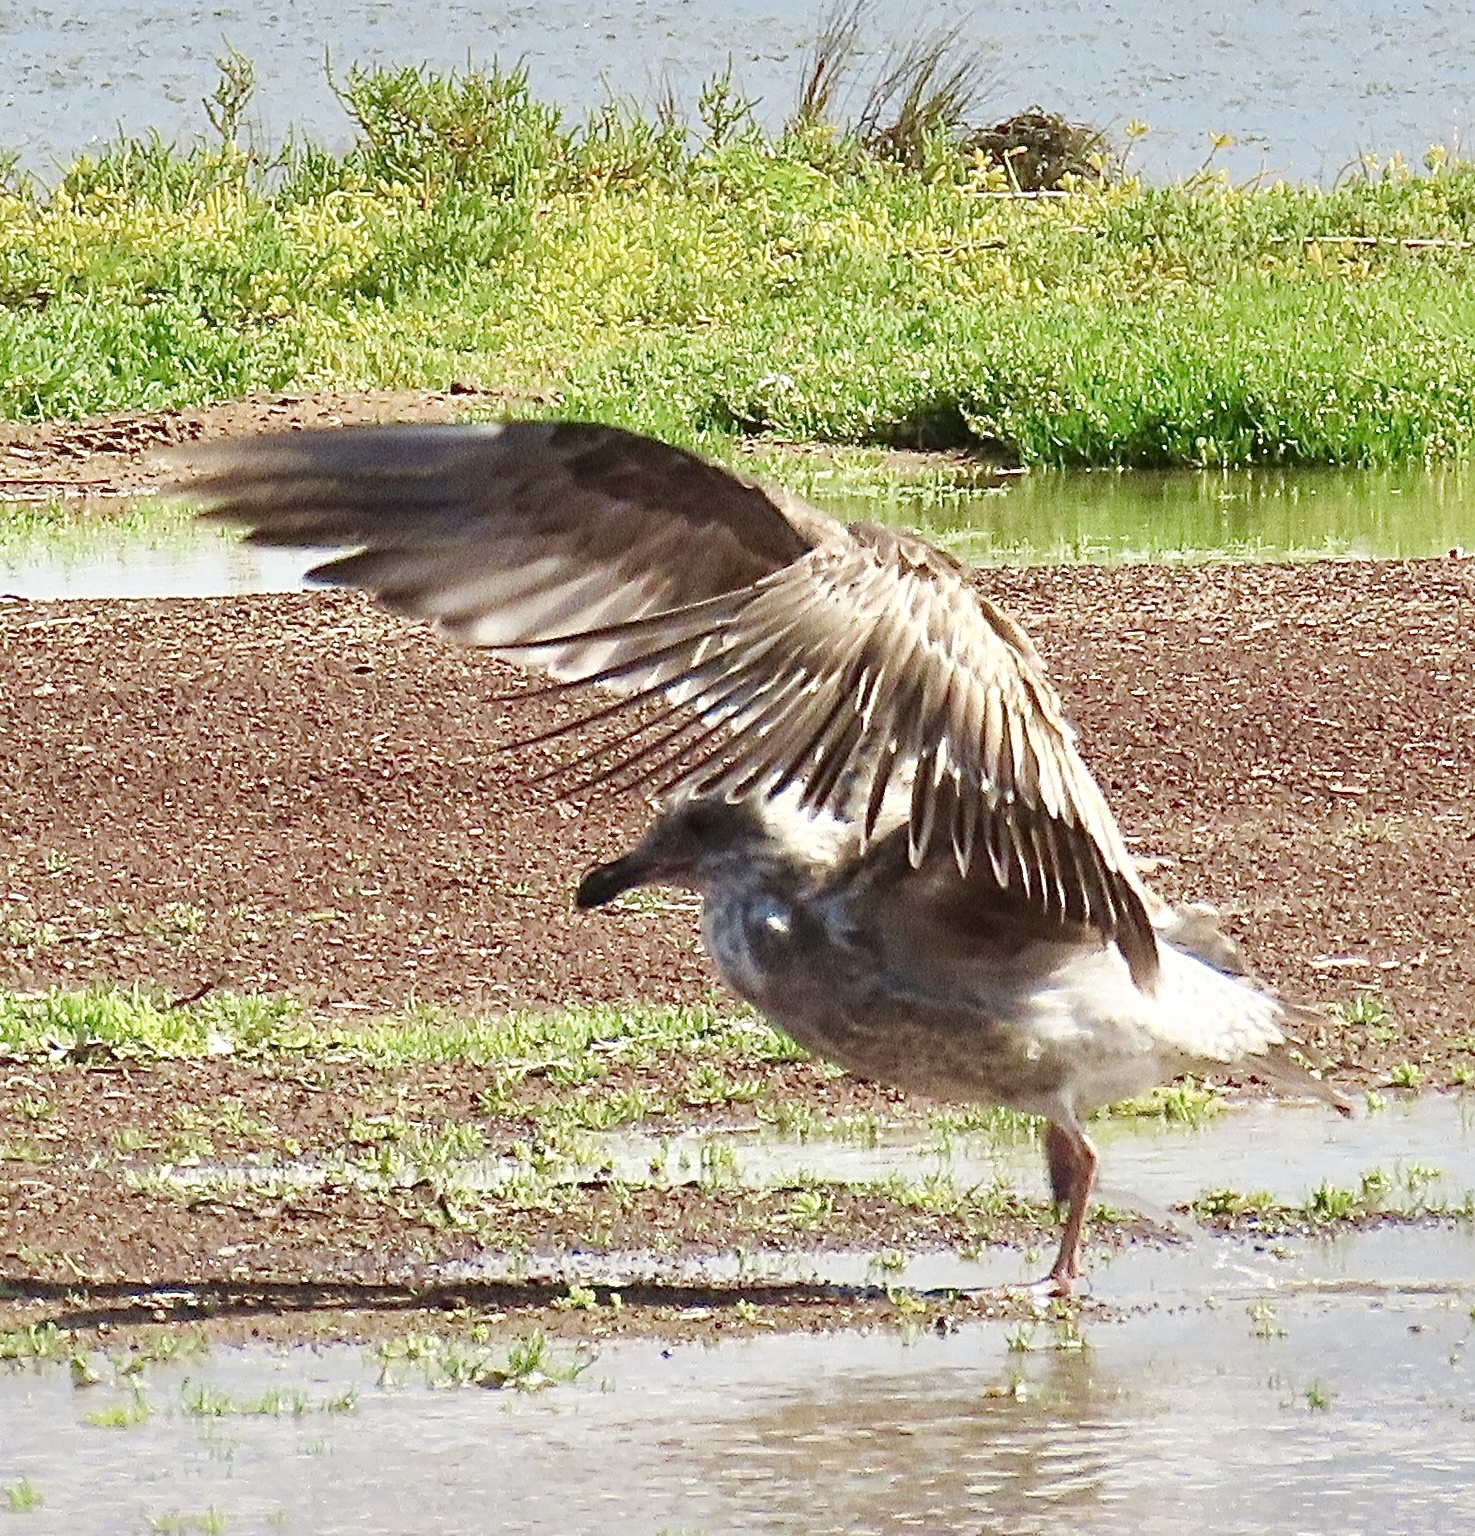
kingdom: Animalia
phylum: Chordata
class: Aves
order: Charadriiformes
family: Laridae
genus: Larus
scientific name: Larus occidentalis
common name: Western gull
